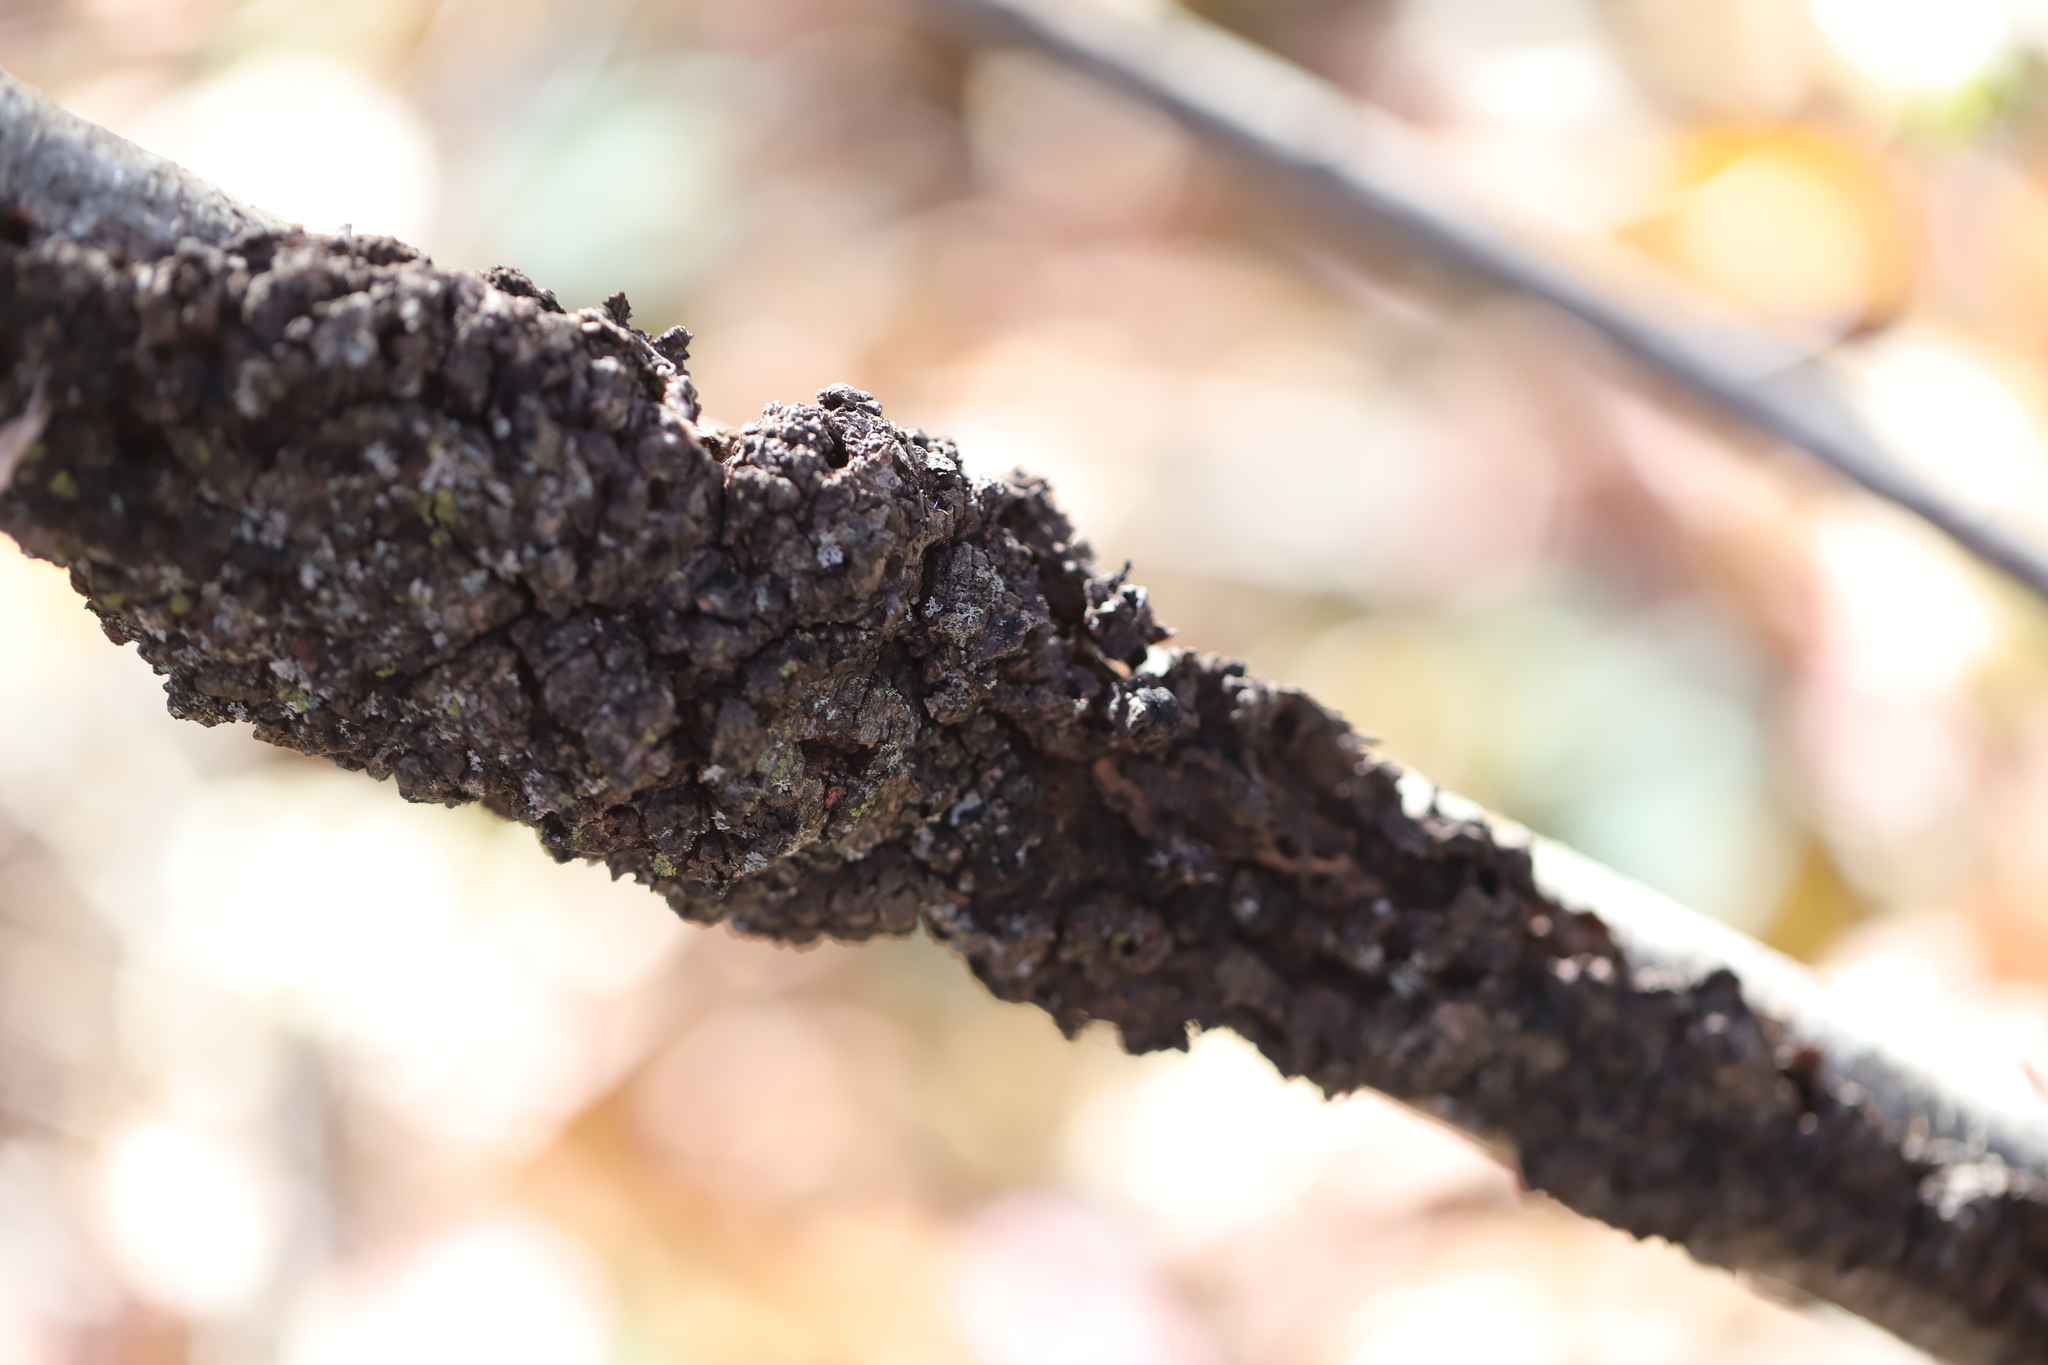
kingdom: Fungi
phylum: Ascomycota
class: Dothideomycetes
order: Venturiales
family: Venturiaceae
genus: Apiosporina
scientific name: Apiosporina morbosa
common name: Black knot
